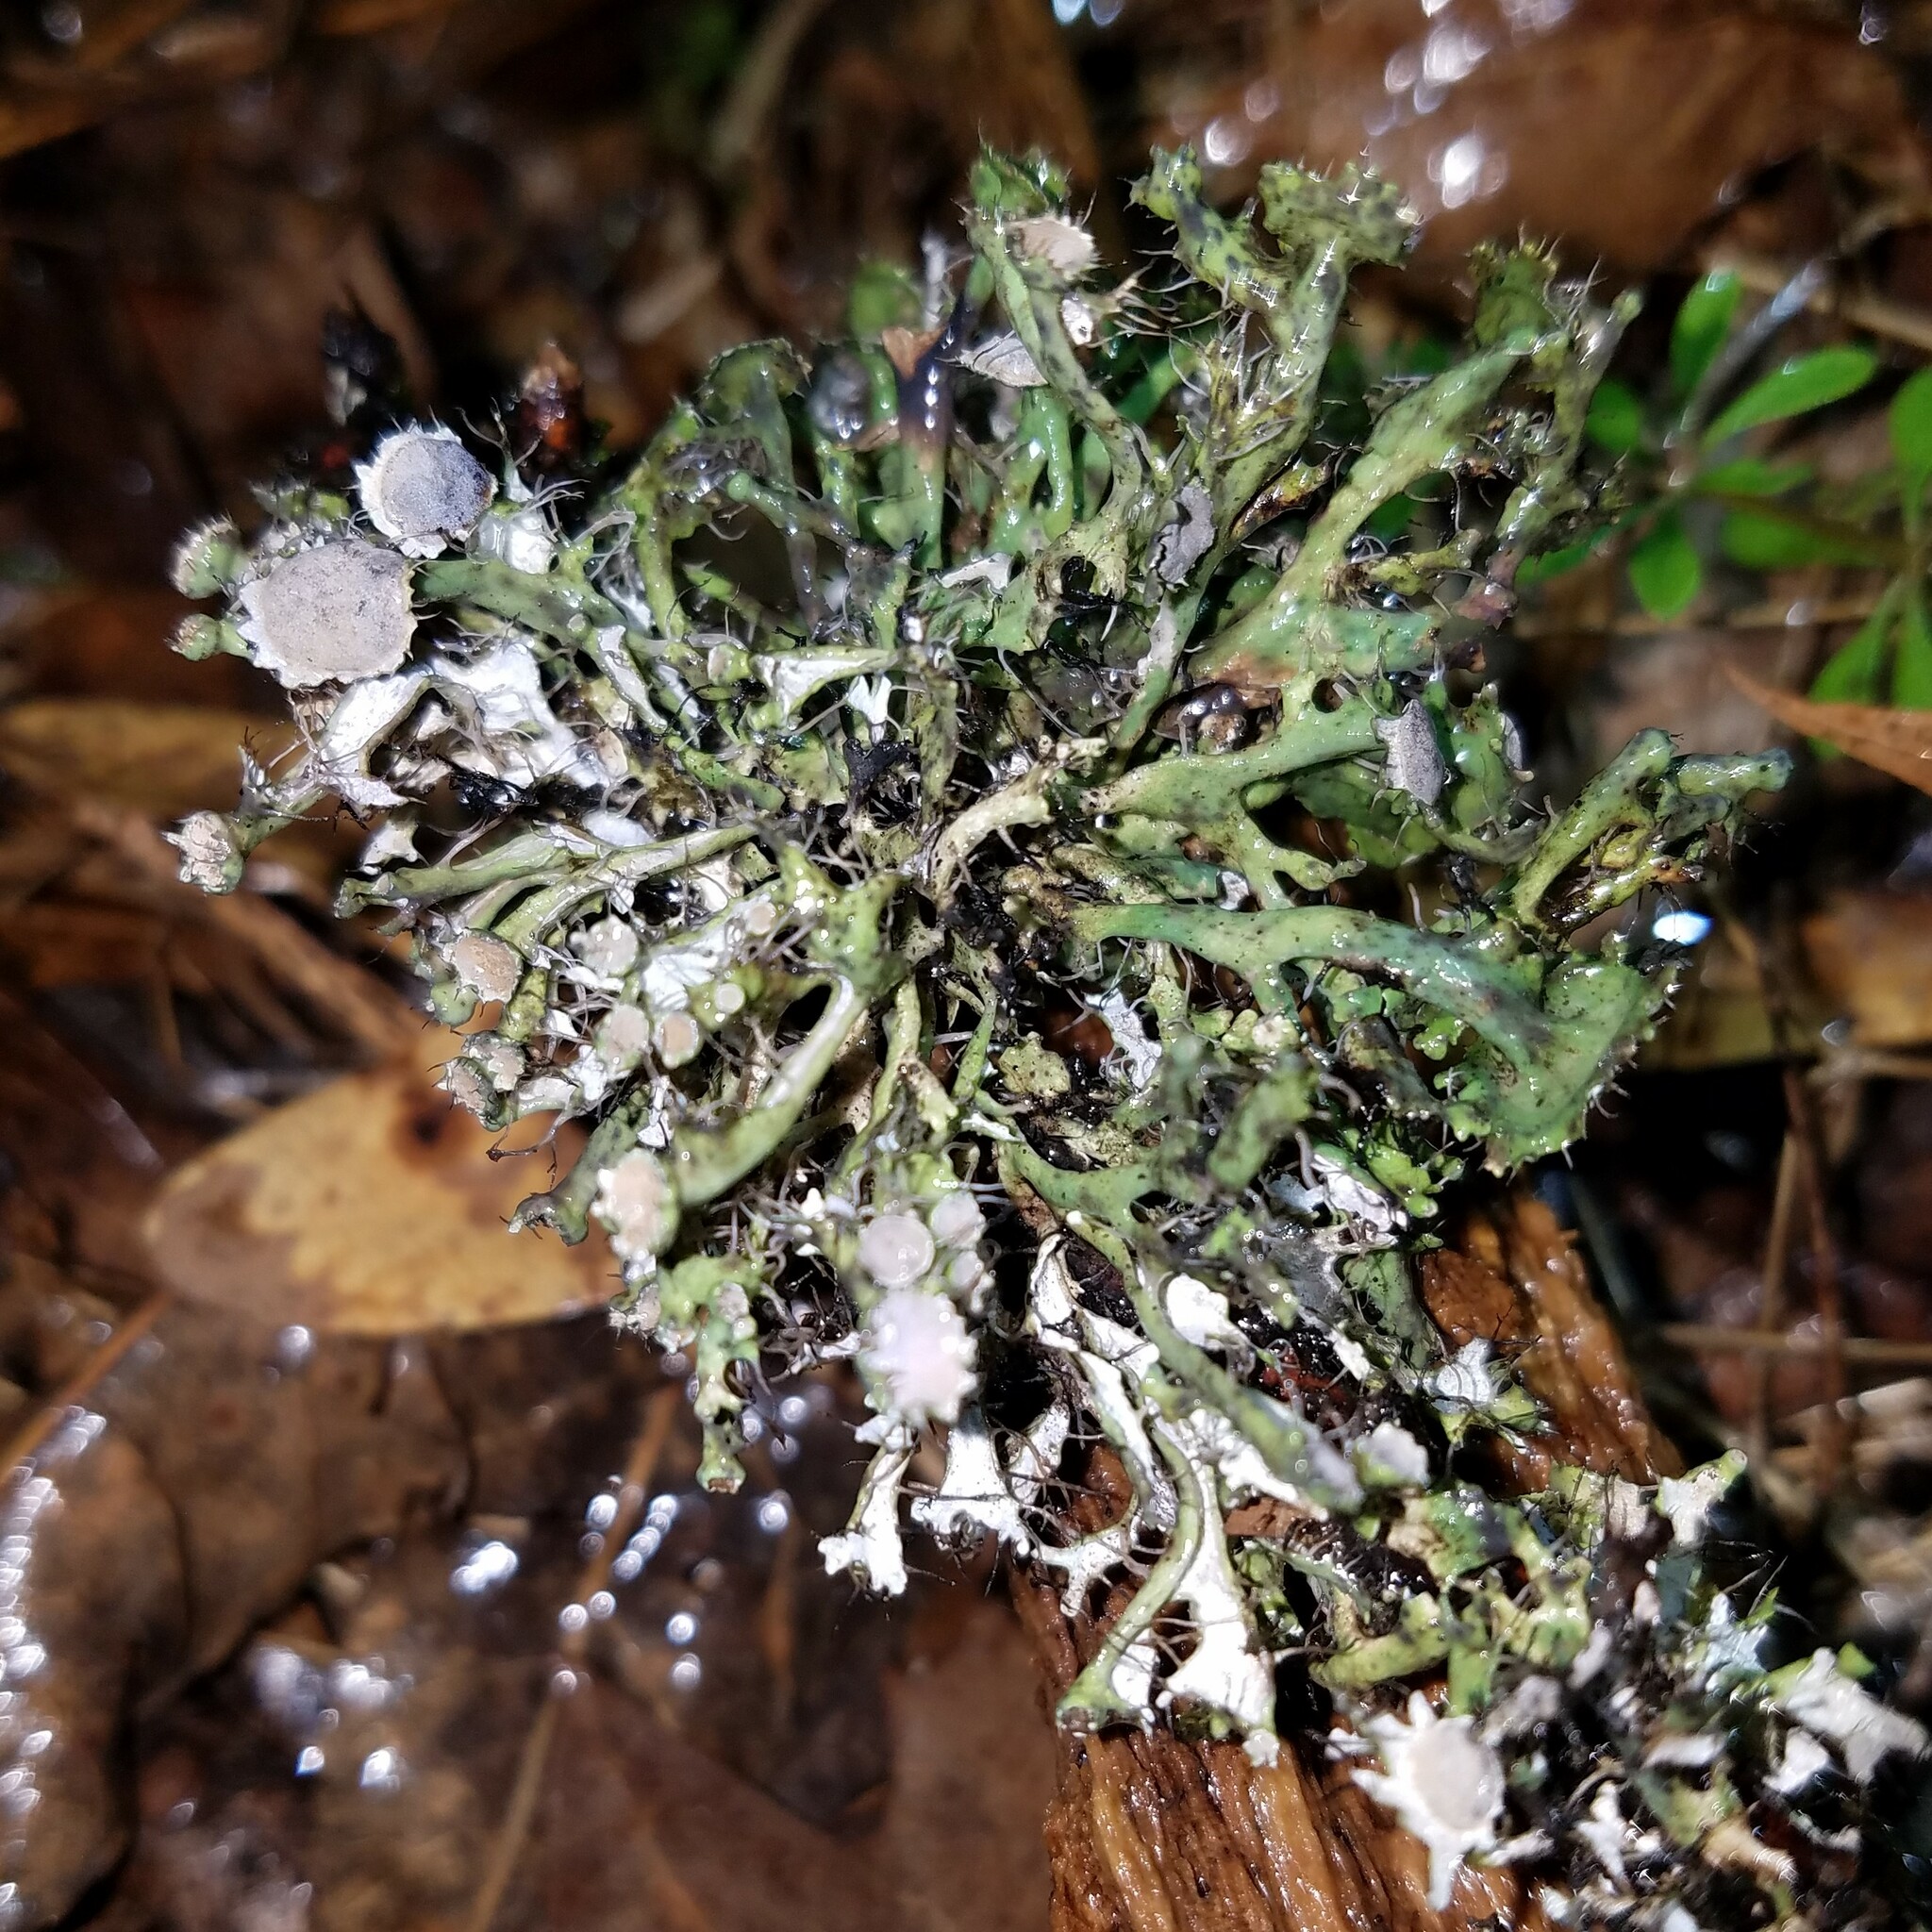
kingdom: Fungi
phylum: Ascomycota
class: Lecanoromycetes
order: Caliciales
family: Physciaceae
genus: Heterodermia
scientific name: Heterodermia echinata
